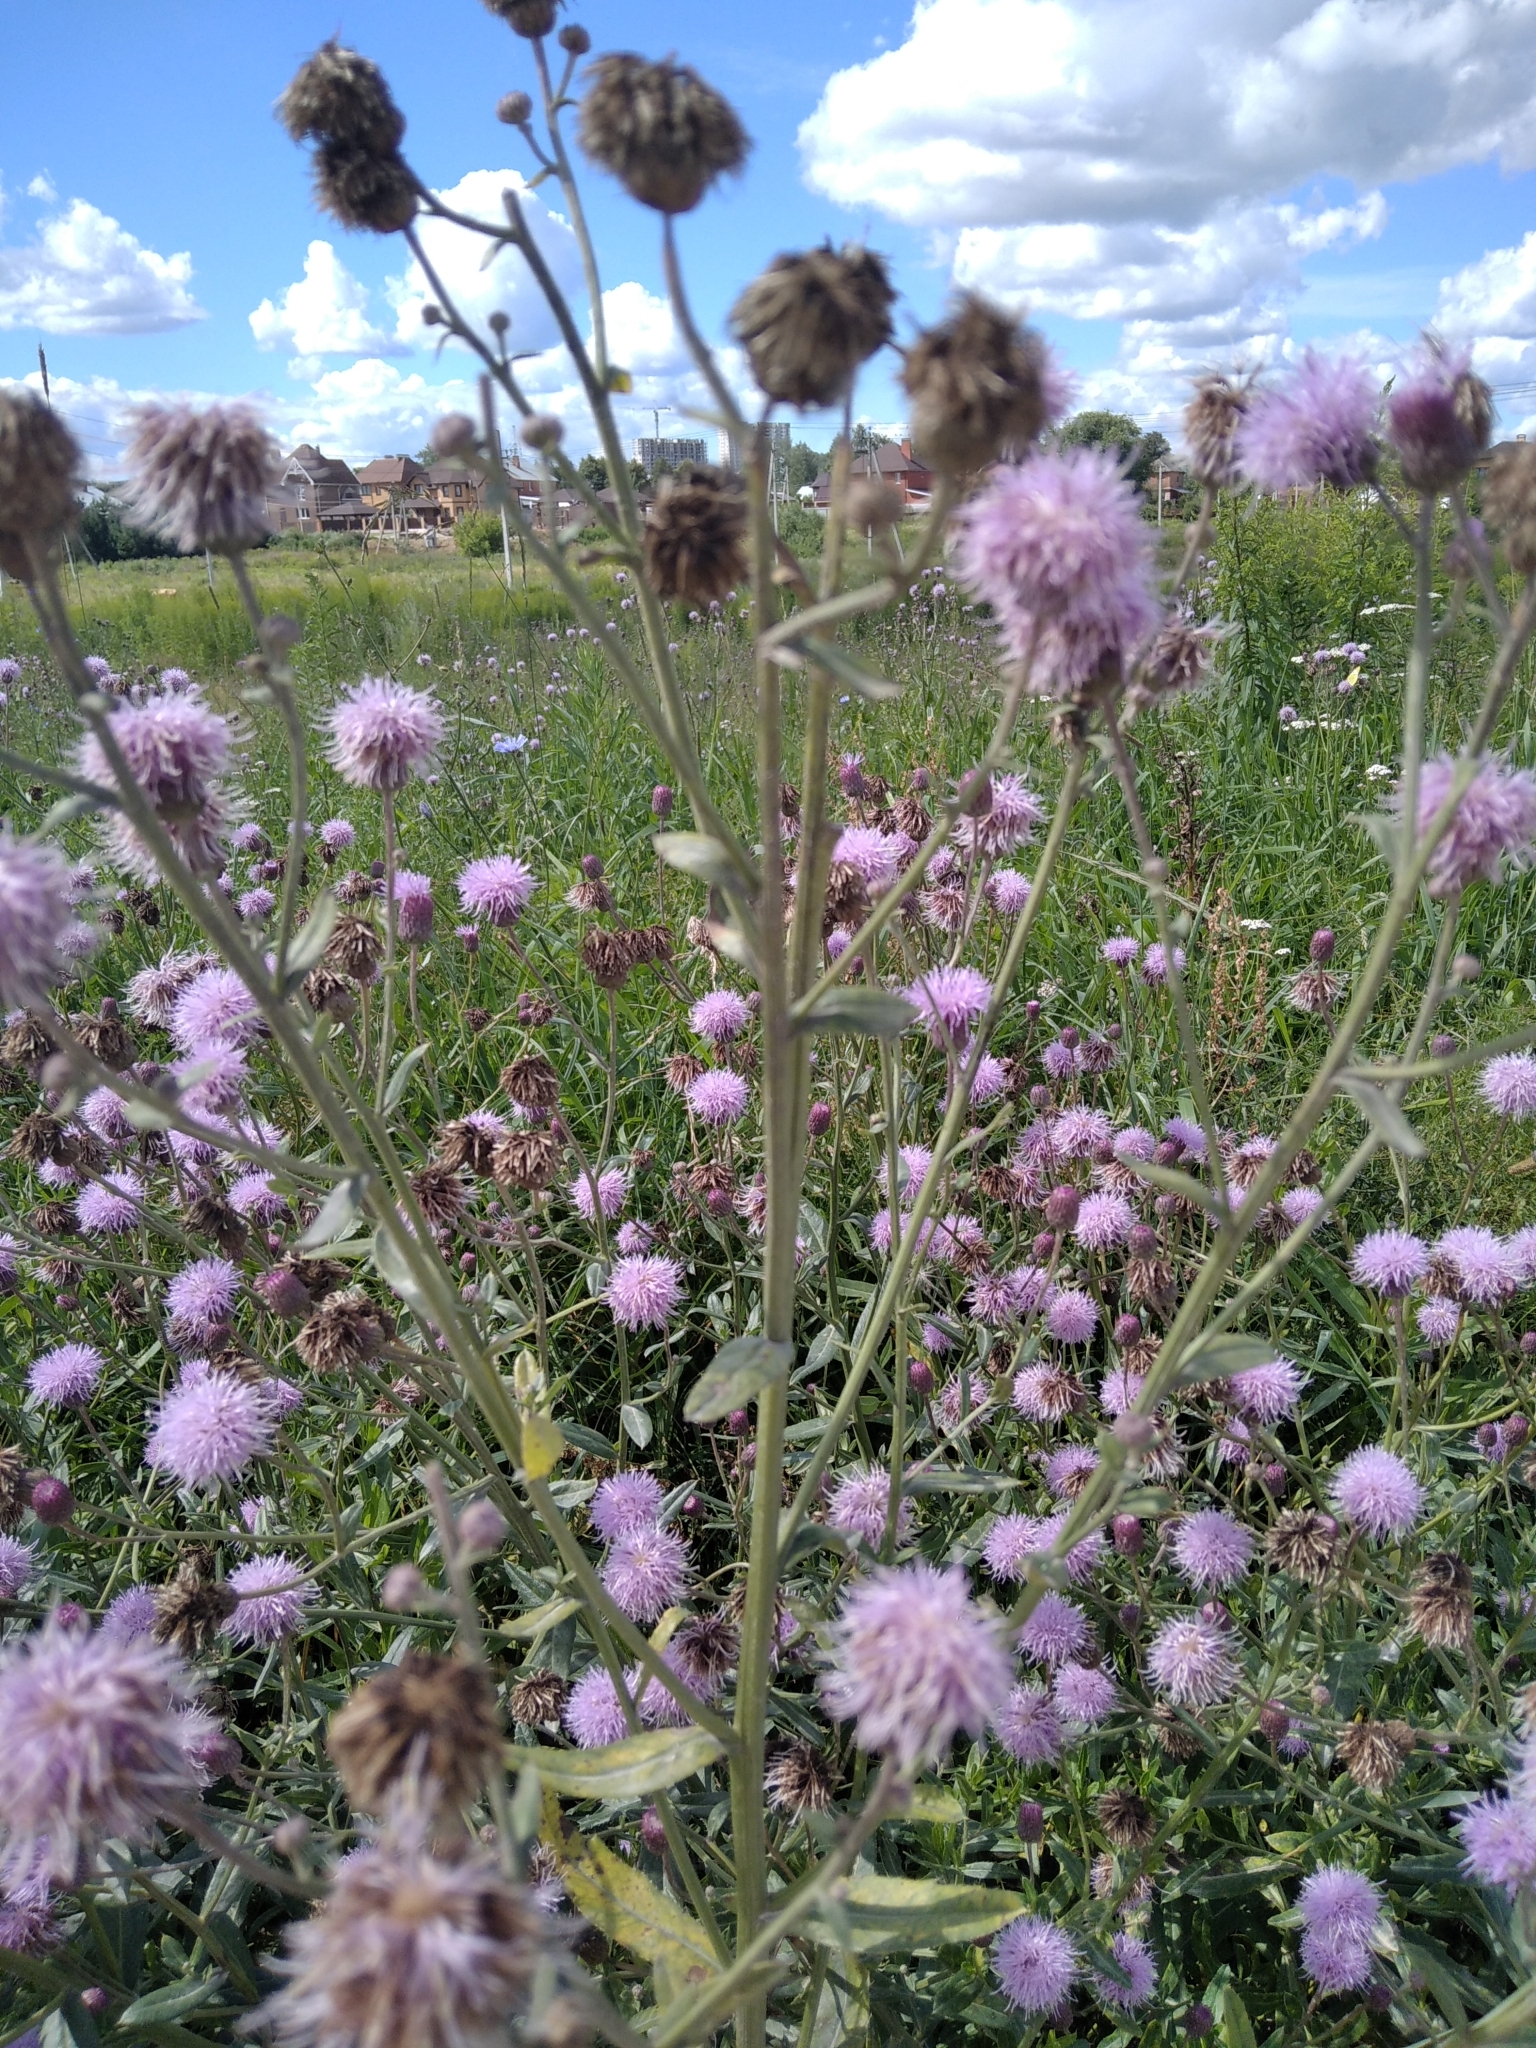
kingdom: Plantae
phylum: Tracheophyta
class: Magnoliopsida
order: Asterales
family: Asteraceae
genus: Cirsium
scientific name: Cirsium arvense
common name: Creeping thistle
